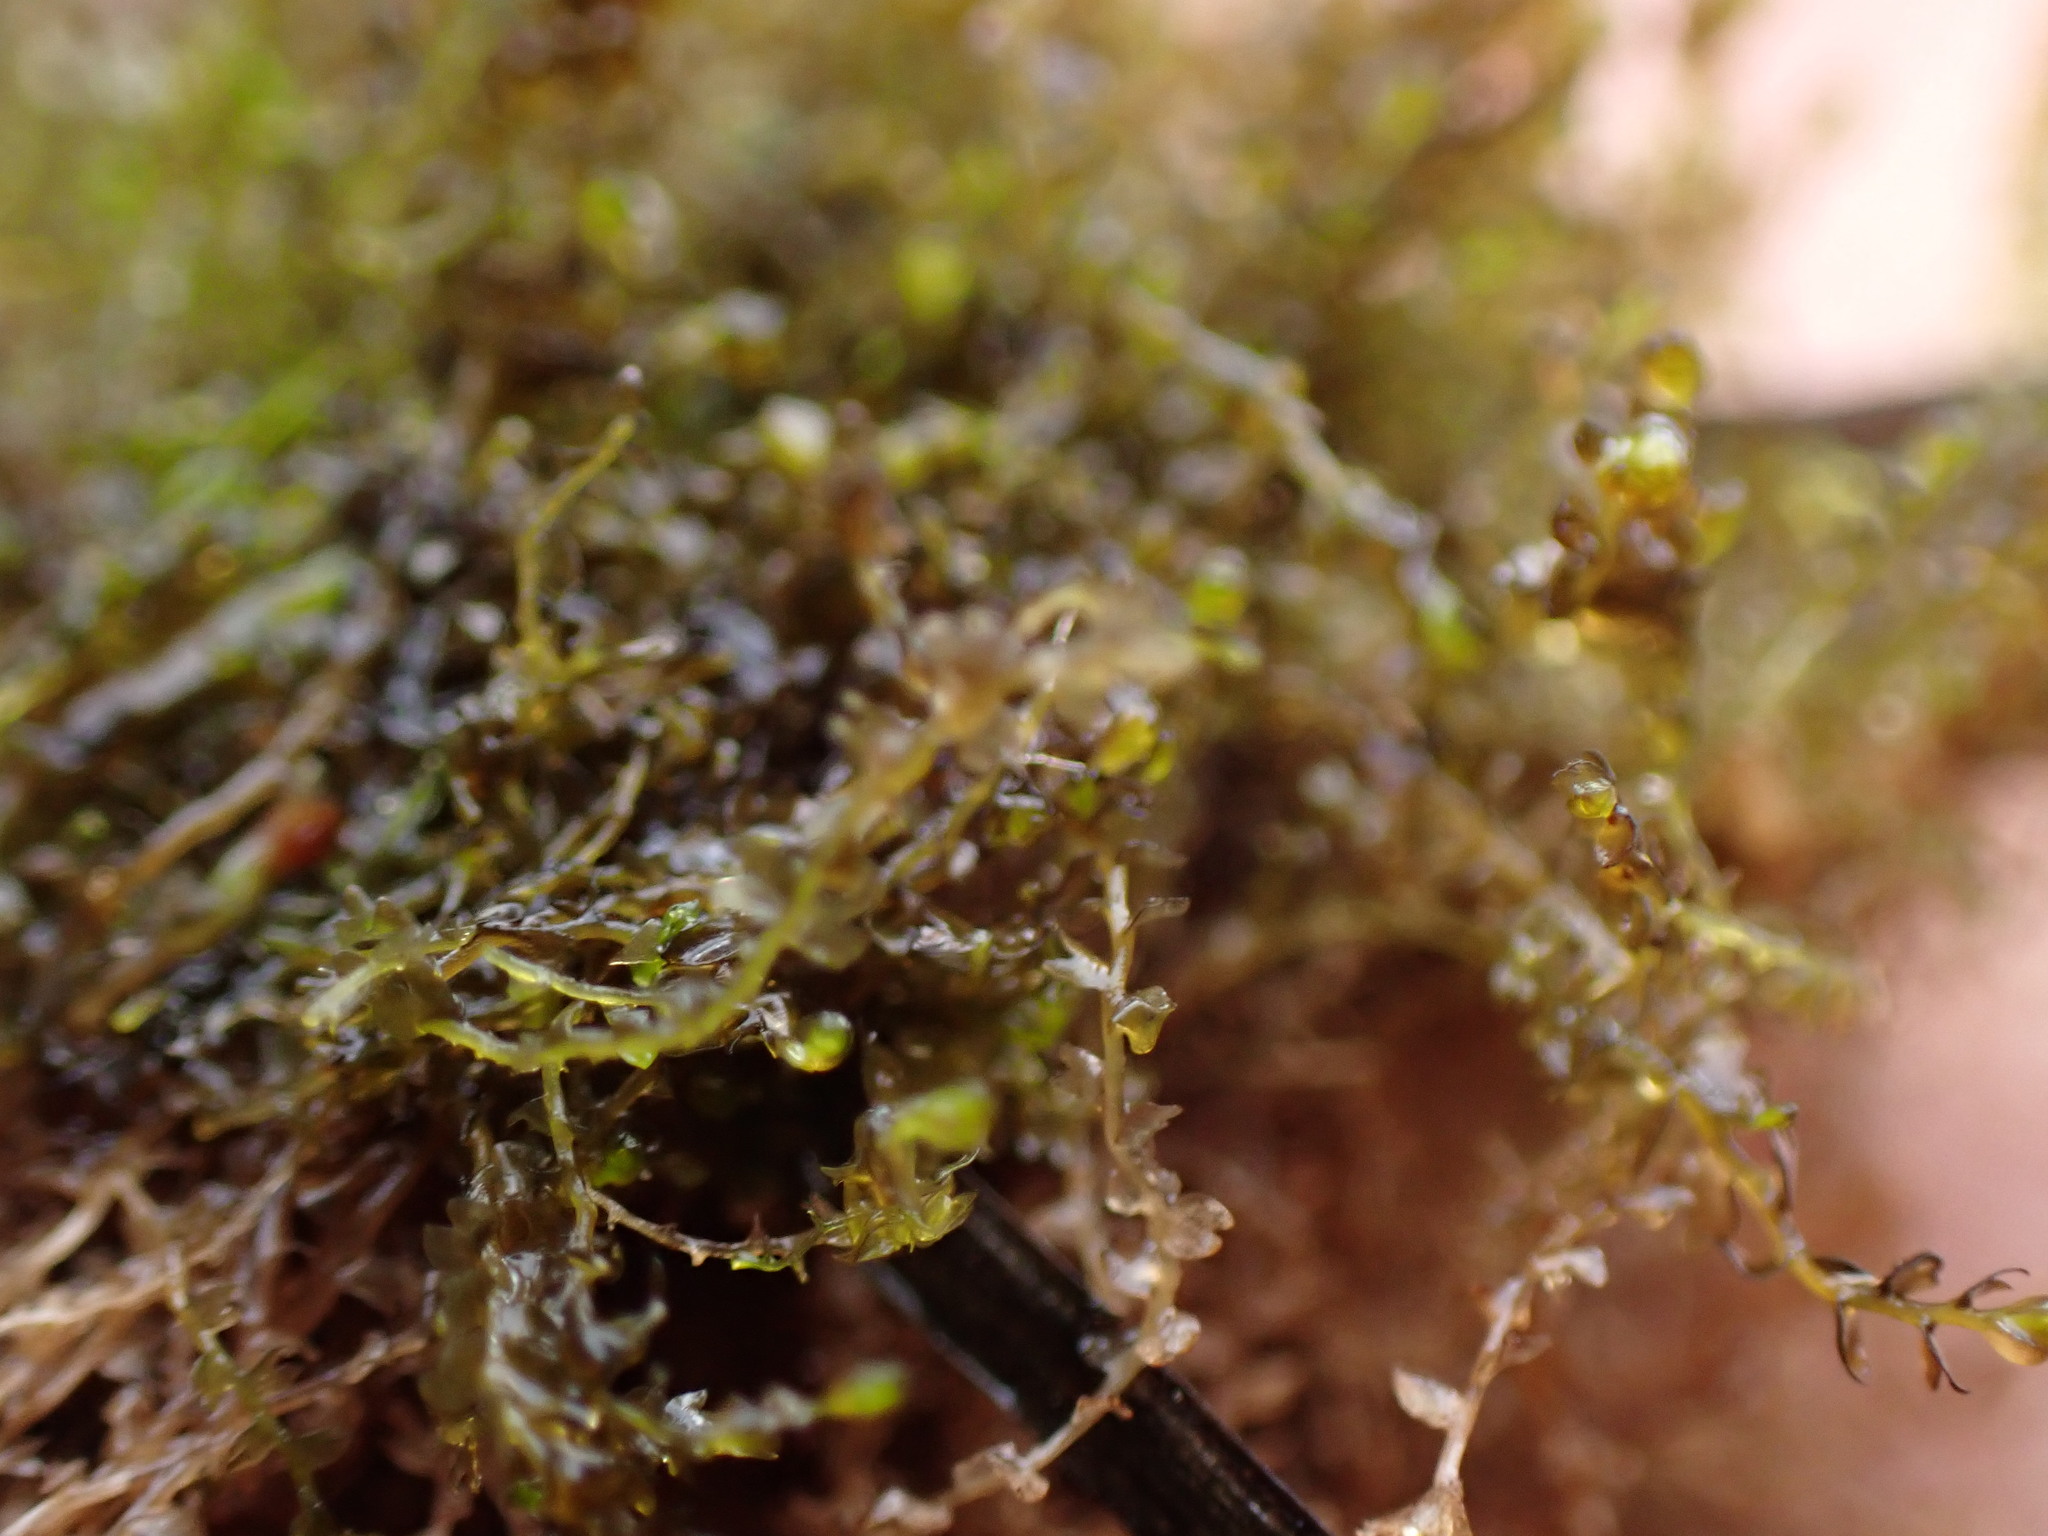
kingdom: Plantae
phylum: Marchantiophyta
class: Jungermanniopsida
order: Jungermanniales
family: Anastrophyllaceae
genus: Gymnocolea
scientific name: Gymnocolea inflata
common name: Inflated notchwort
